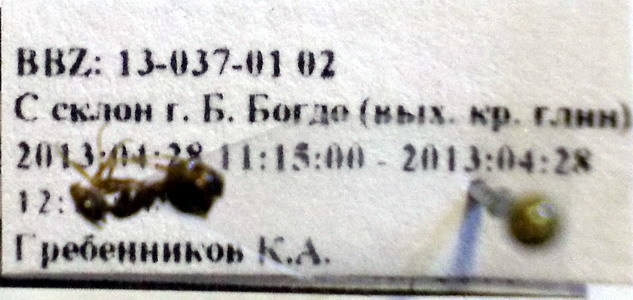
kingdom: Animalia
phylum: Arthropoda
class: Insecta
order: Hymenoptera
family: Formicidae
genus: Proformica
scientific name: Proformica epinotalis
